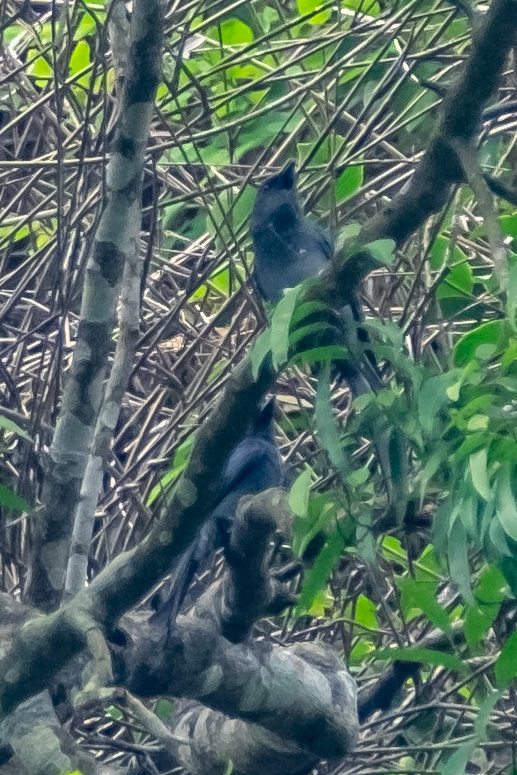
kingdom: Animalia
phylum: Chordata
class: Aves
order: Passeriformes
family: Dicruridae
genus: Dicrurus
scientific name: Dicrurus leucophaeus
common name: Ashy drongo
